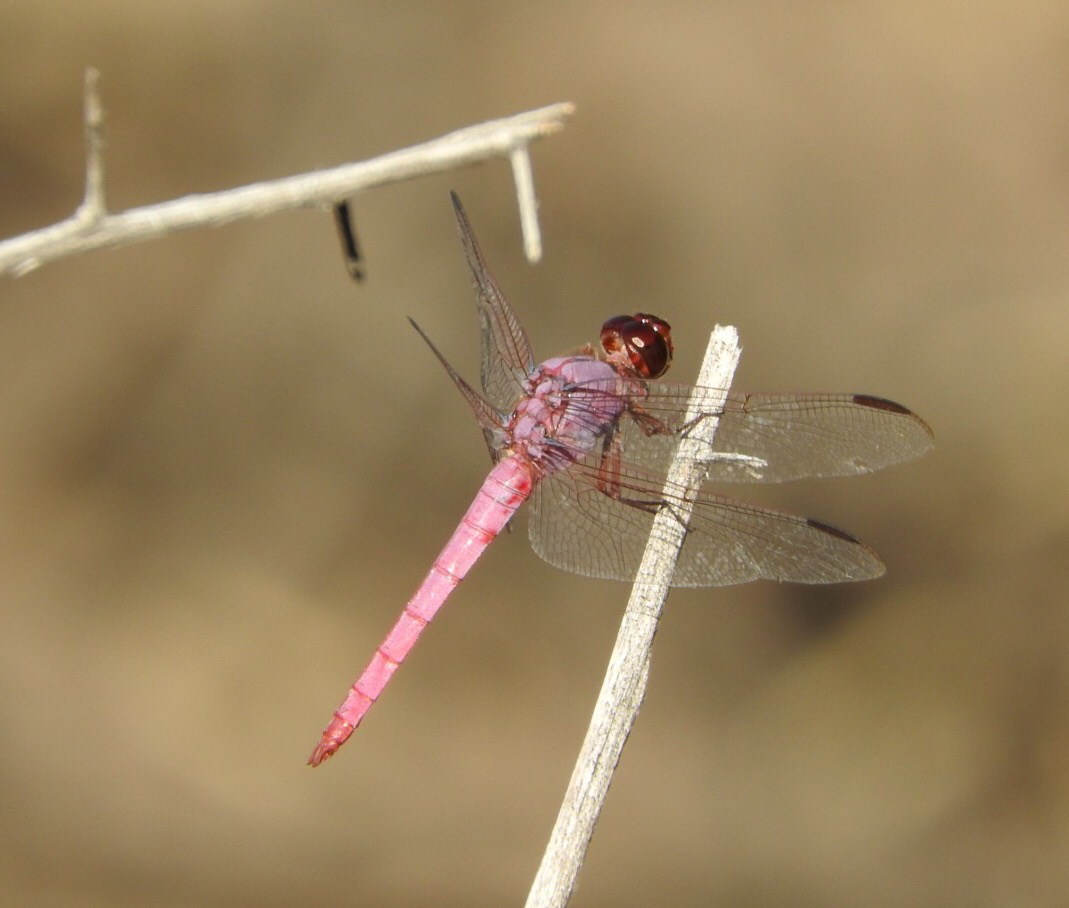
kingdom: Animalia
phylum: Arthropoda
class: Insecta
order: Odonata
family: Libellulidae
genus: Orthemis
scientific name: Orthemis ferruginea
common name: Roseate skimmer
